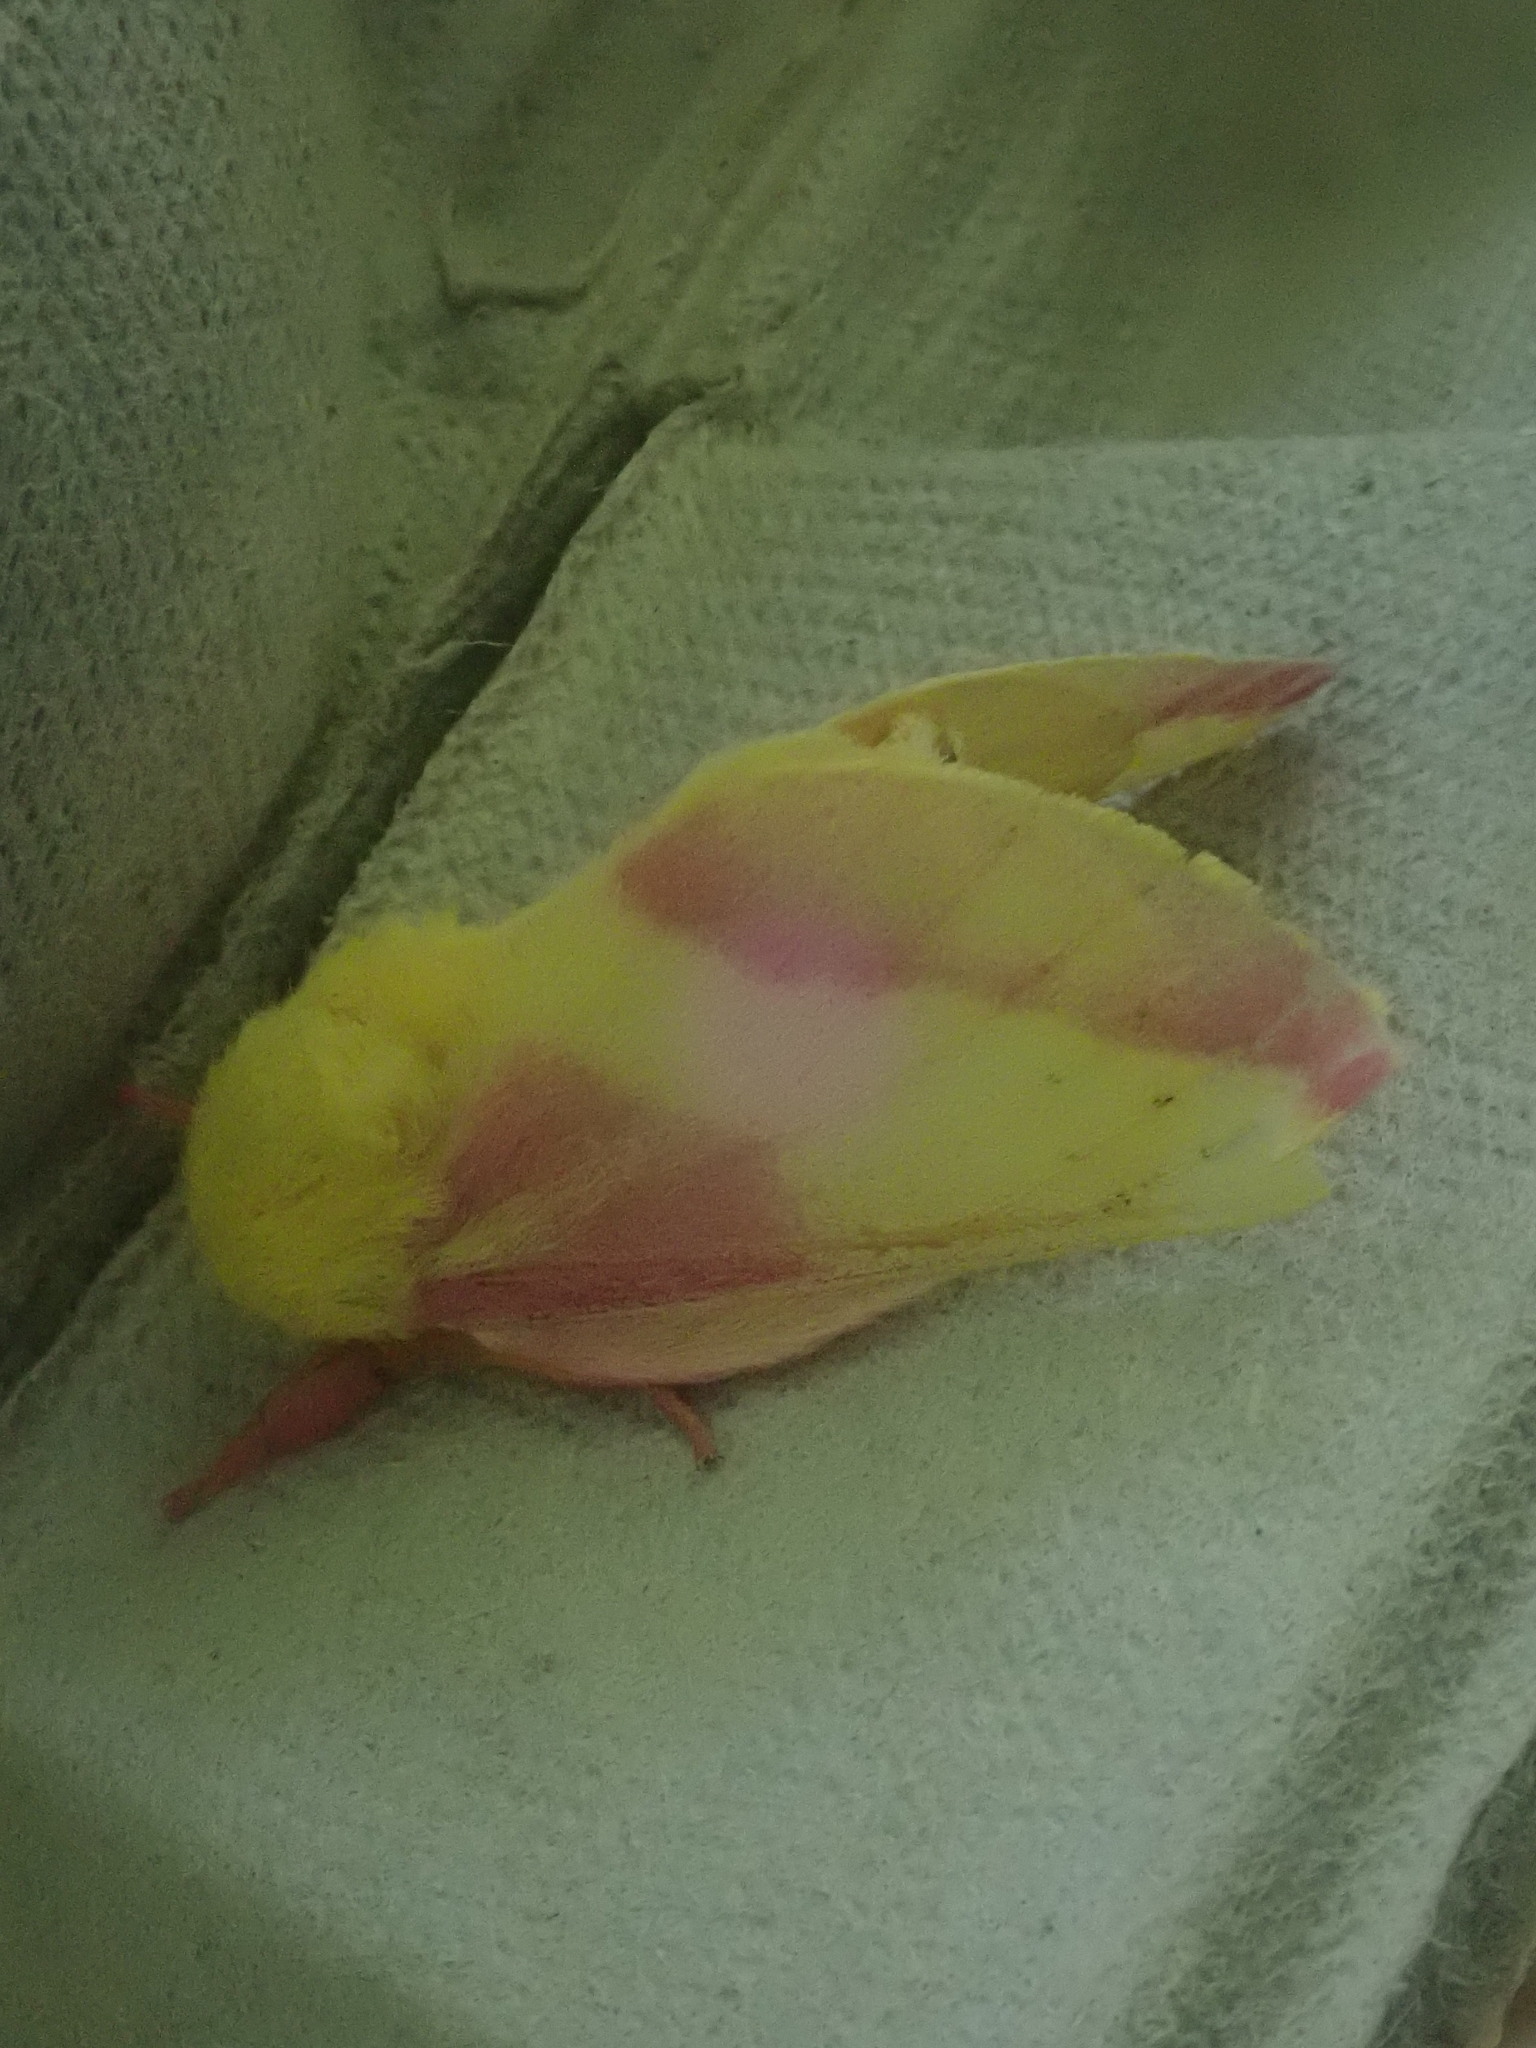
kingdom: Animalia
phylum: Arthropoda
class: Insecta
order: Lepidoptera
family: Saturniidae
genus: Dryocampa
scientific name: Dryocampa rubicunda
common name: Rosy maple moth
